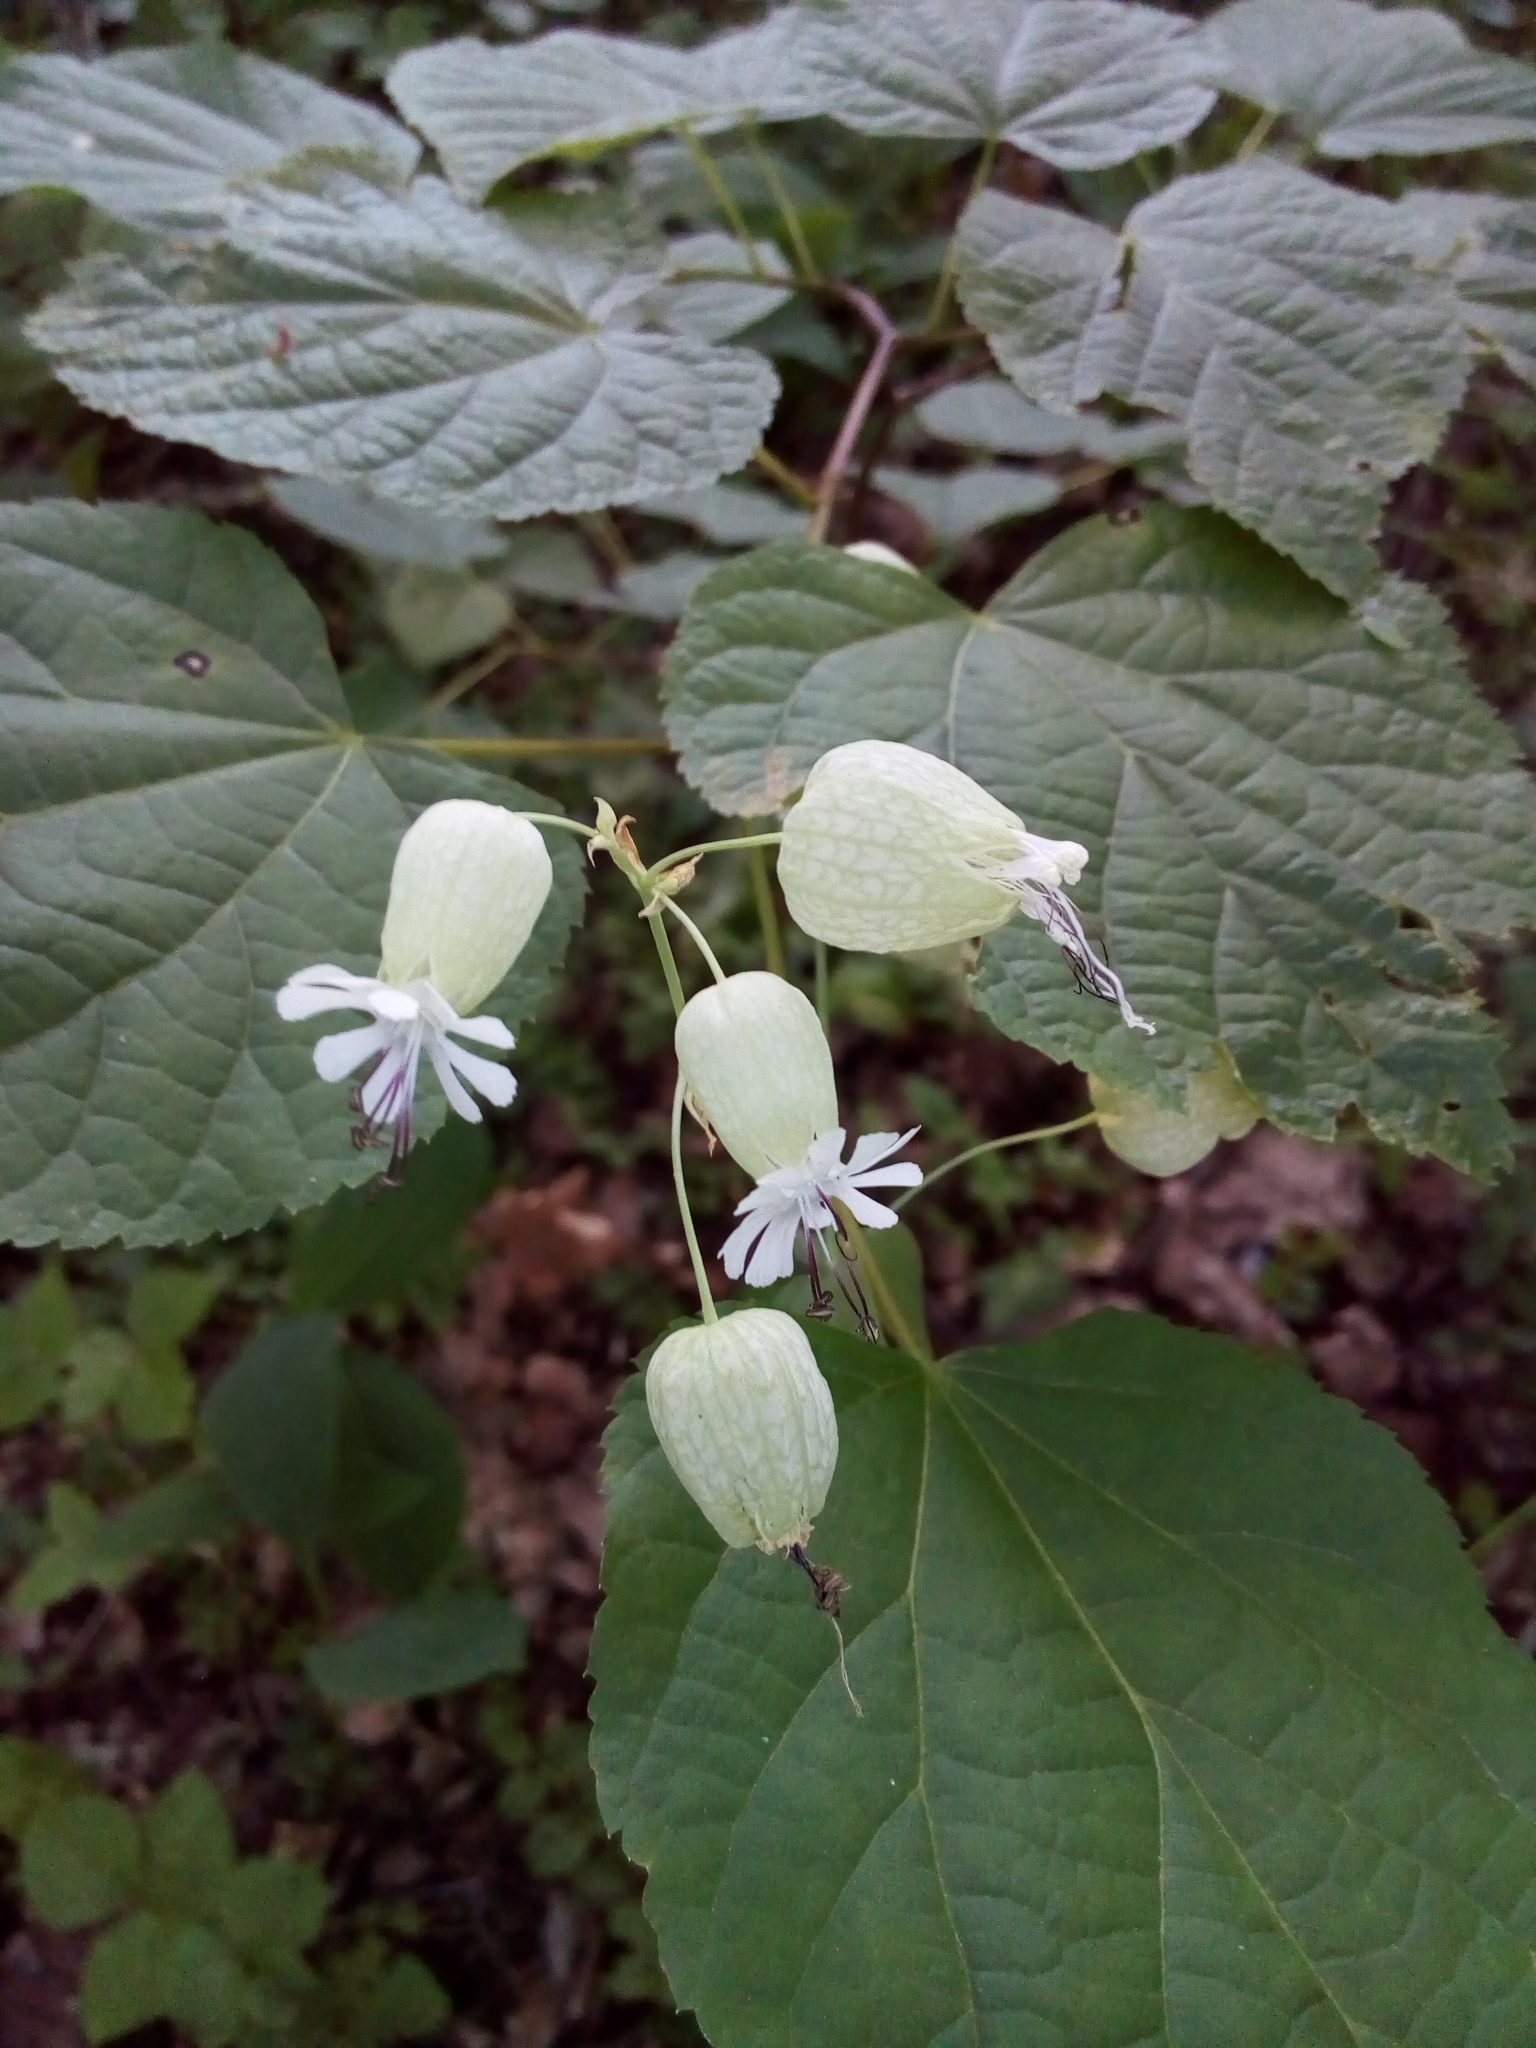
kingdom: Plantae
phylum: Tracheophyta
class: Magnoliopsida
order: Caryophyllales
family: Caryophyllaceae
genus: Silene
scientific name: Silene vulgaris
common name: Bladder campion
